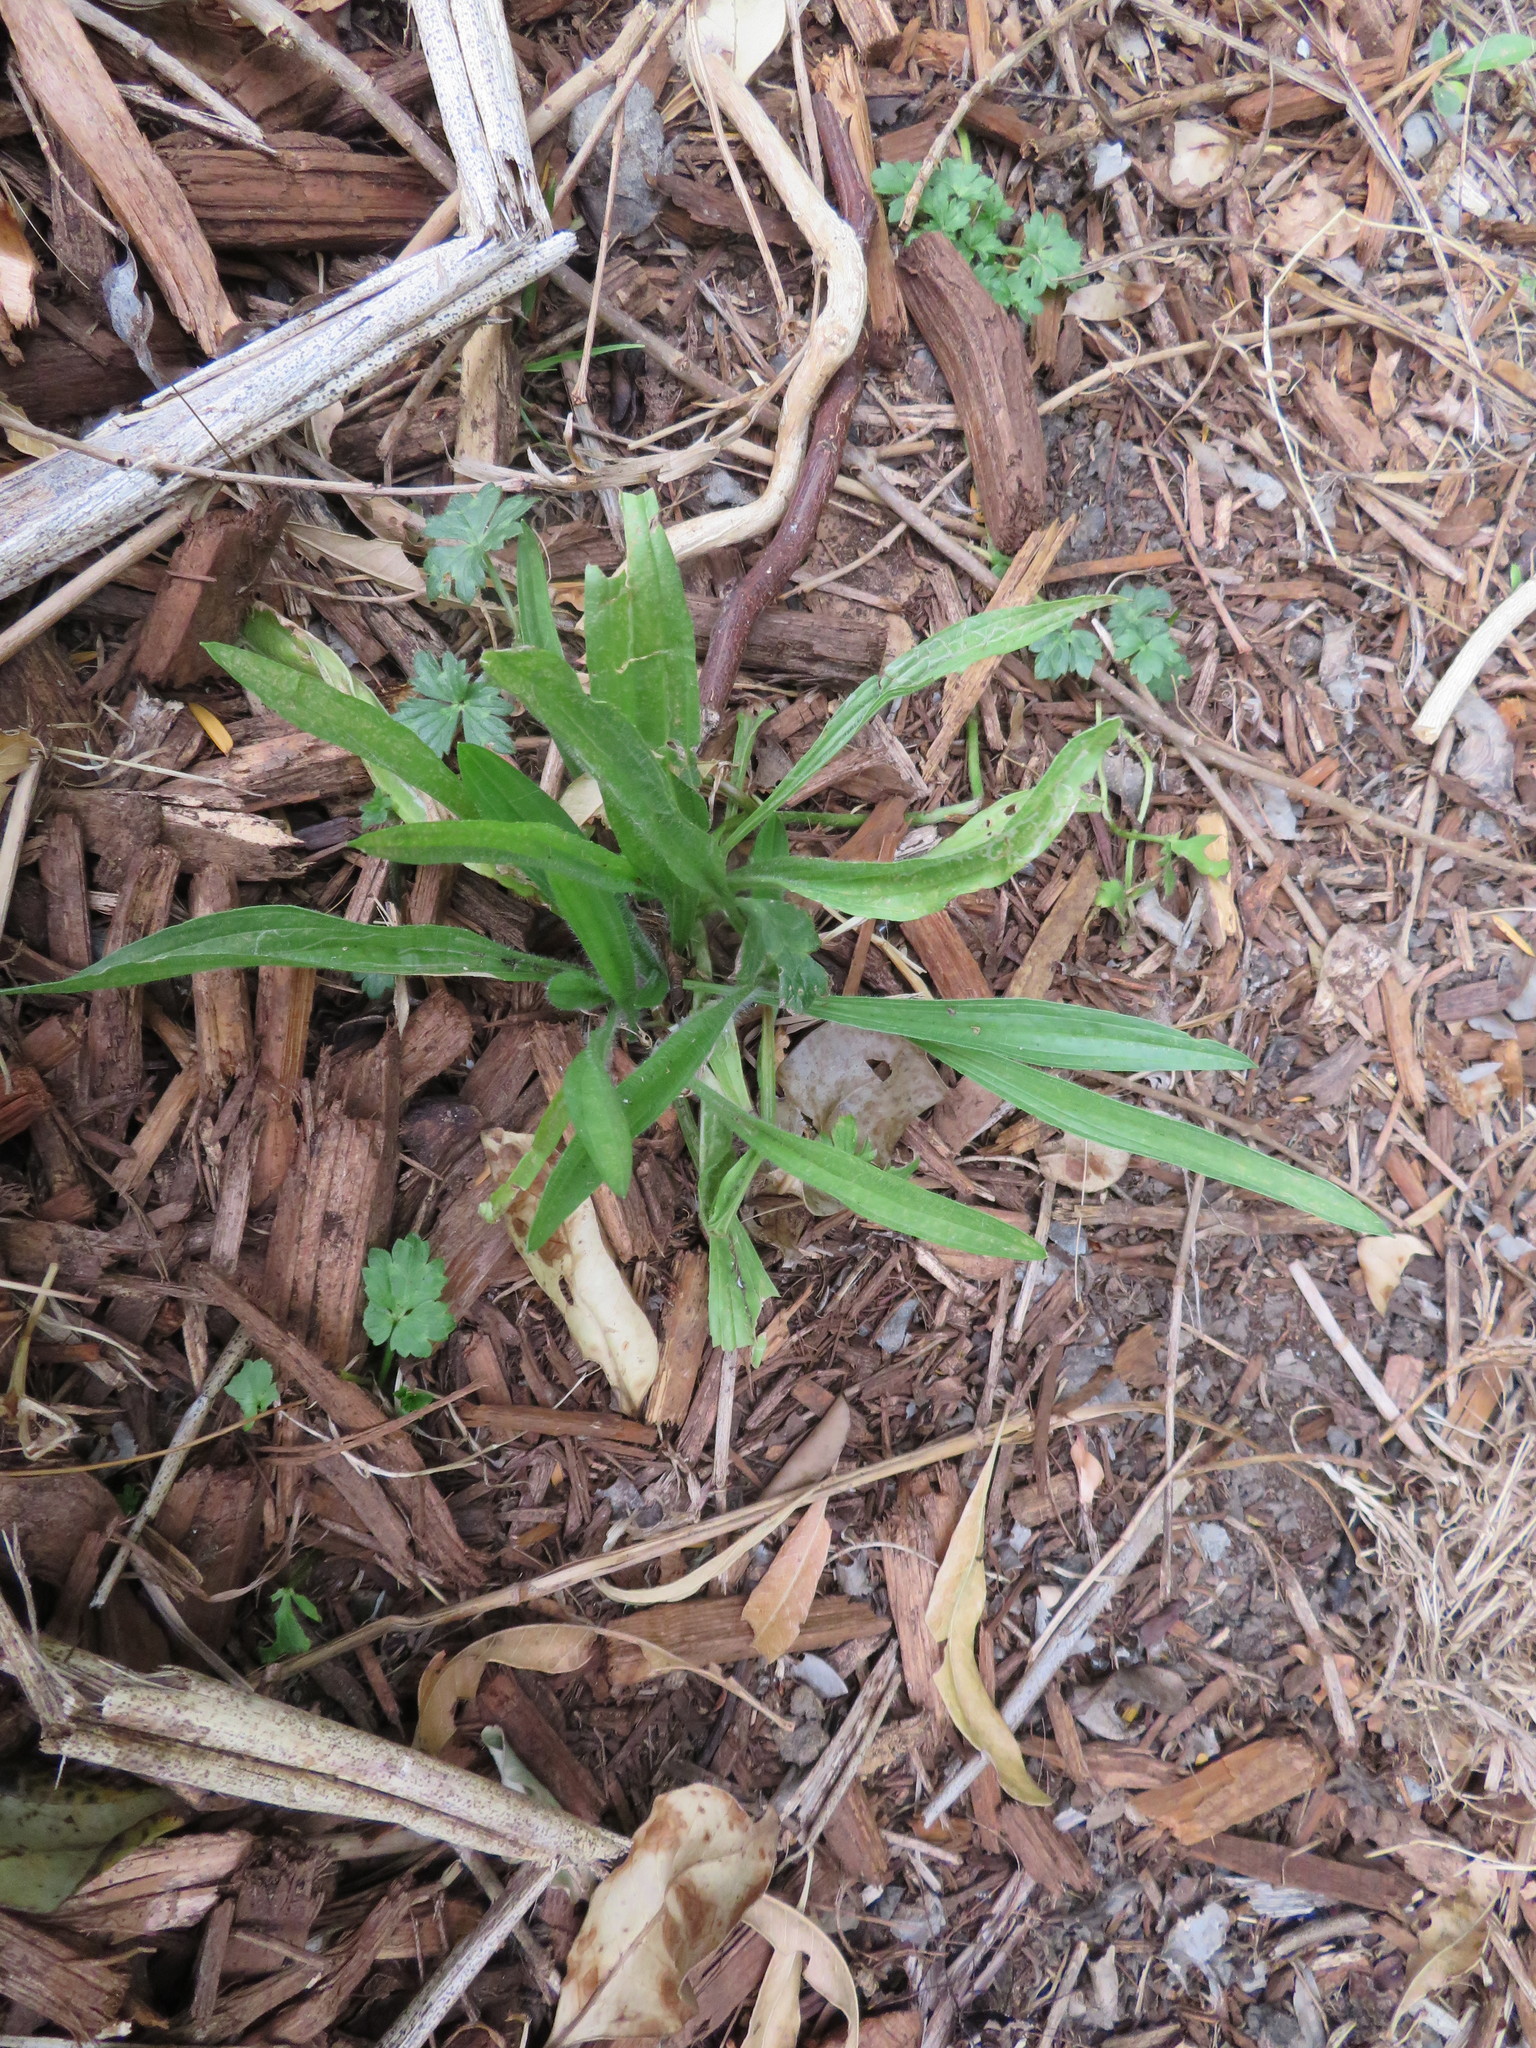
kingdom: Plantae
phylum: Tracheophyta
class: Magnoliopsida
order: Lamiales
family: Plantaginaceae
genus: Plantago
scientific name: Plantago lanceolata
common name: Ribwort plantain
